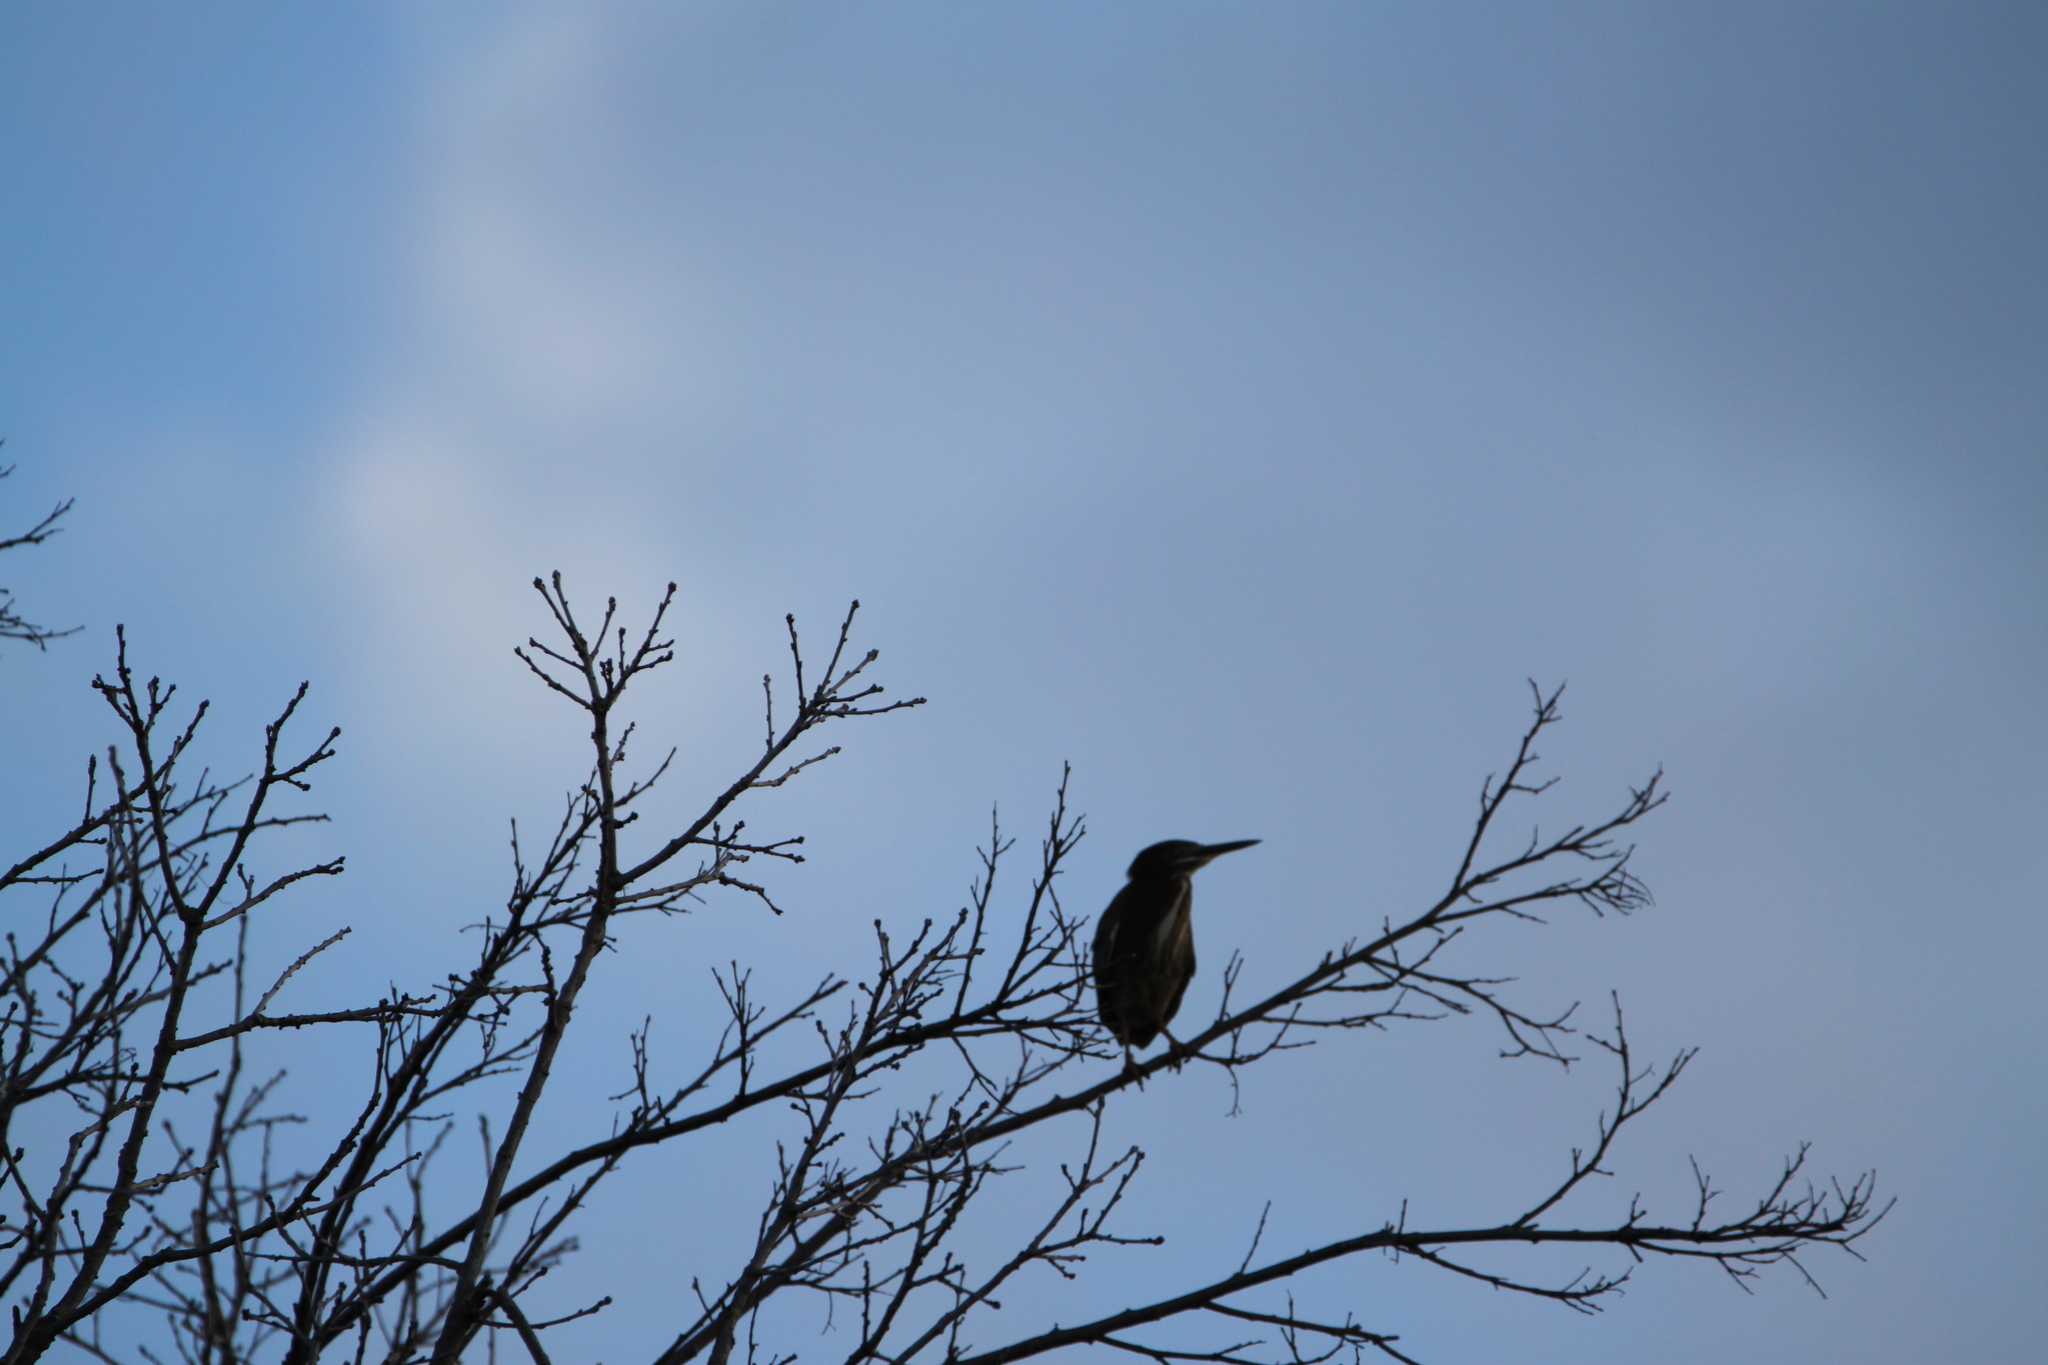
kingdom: Animalia
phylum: Chordata
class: Aves
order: Pelecaniformes
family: Ardeidae
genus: Butorides
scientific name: Butorides virescens
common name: Green heron
